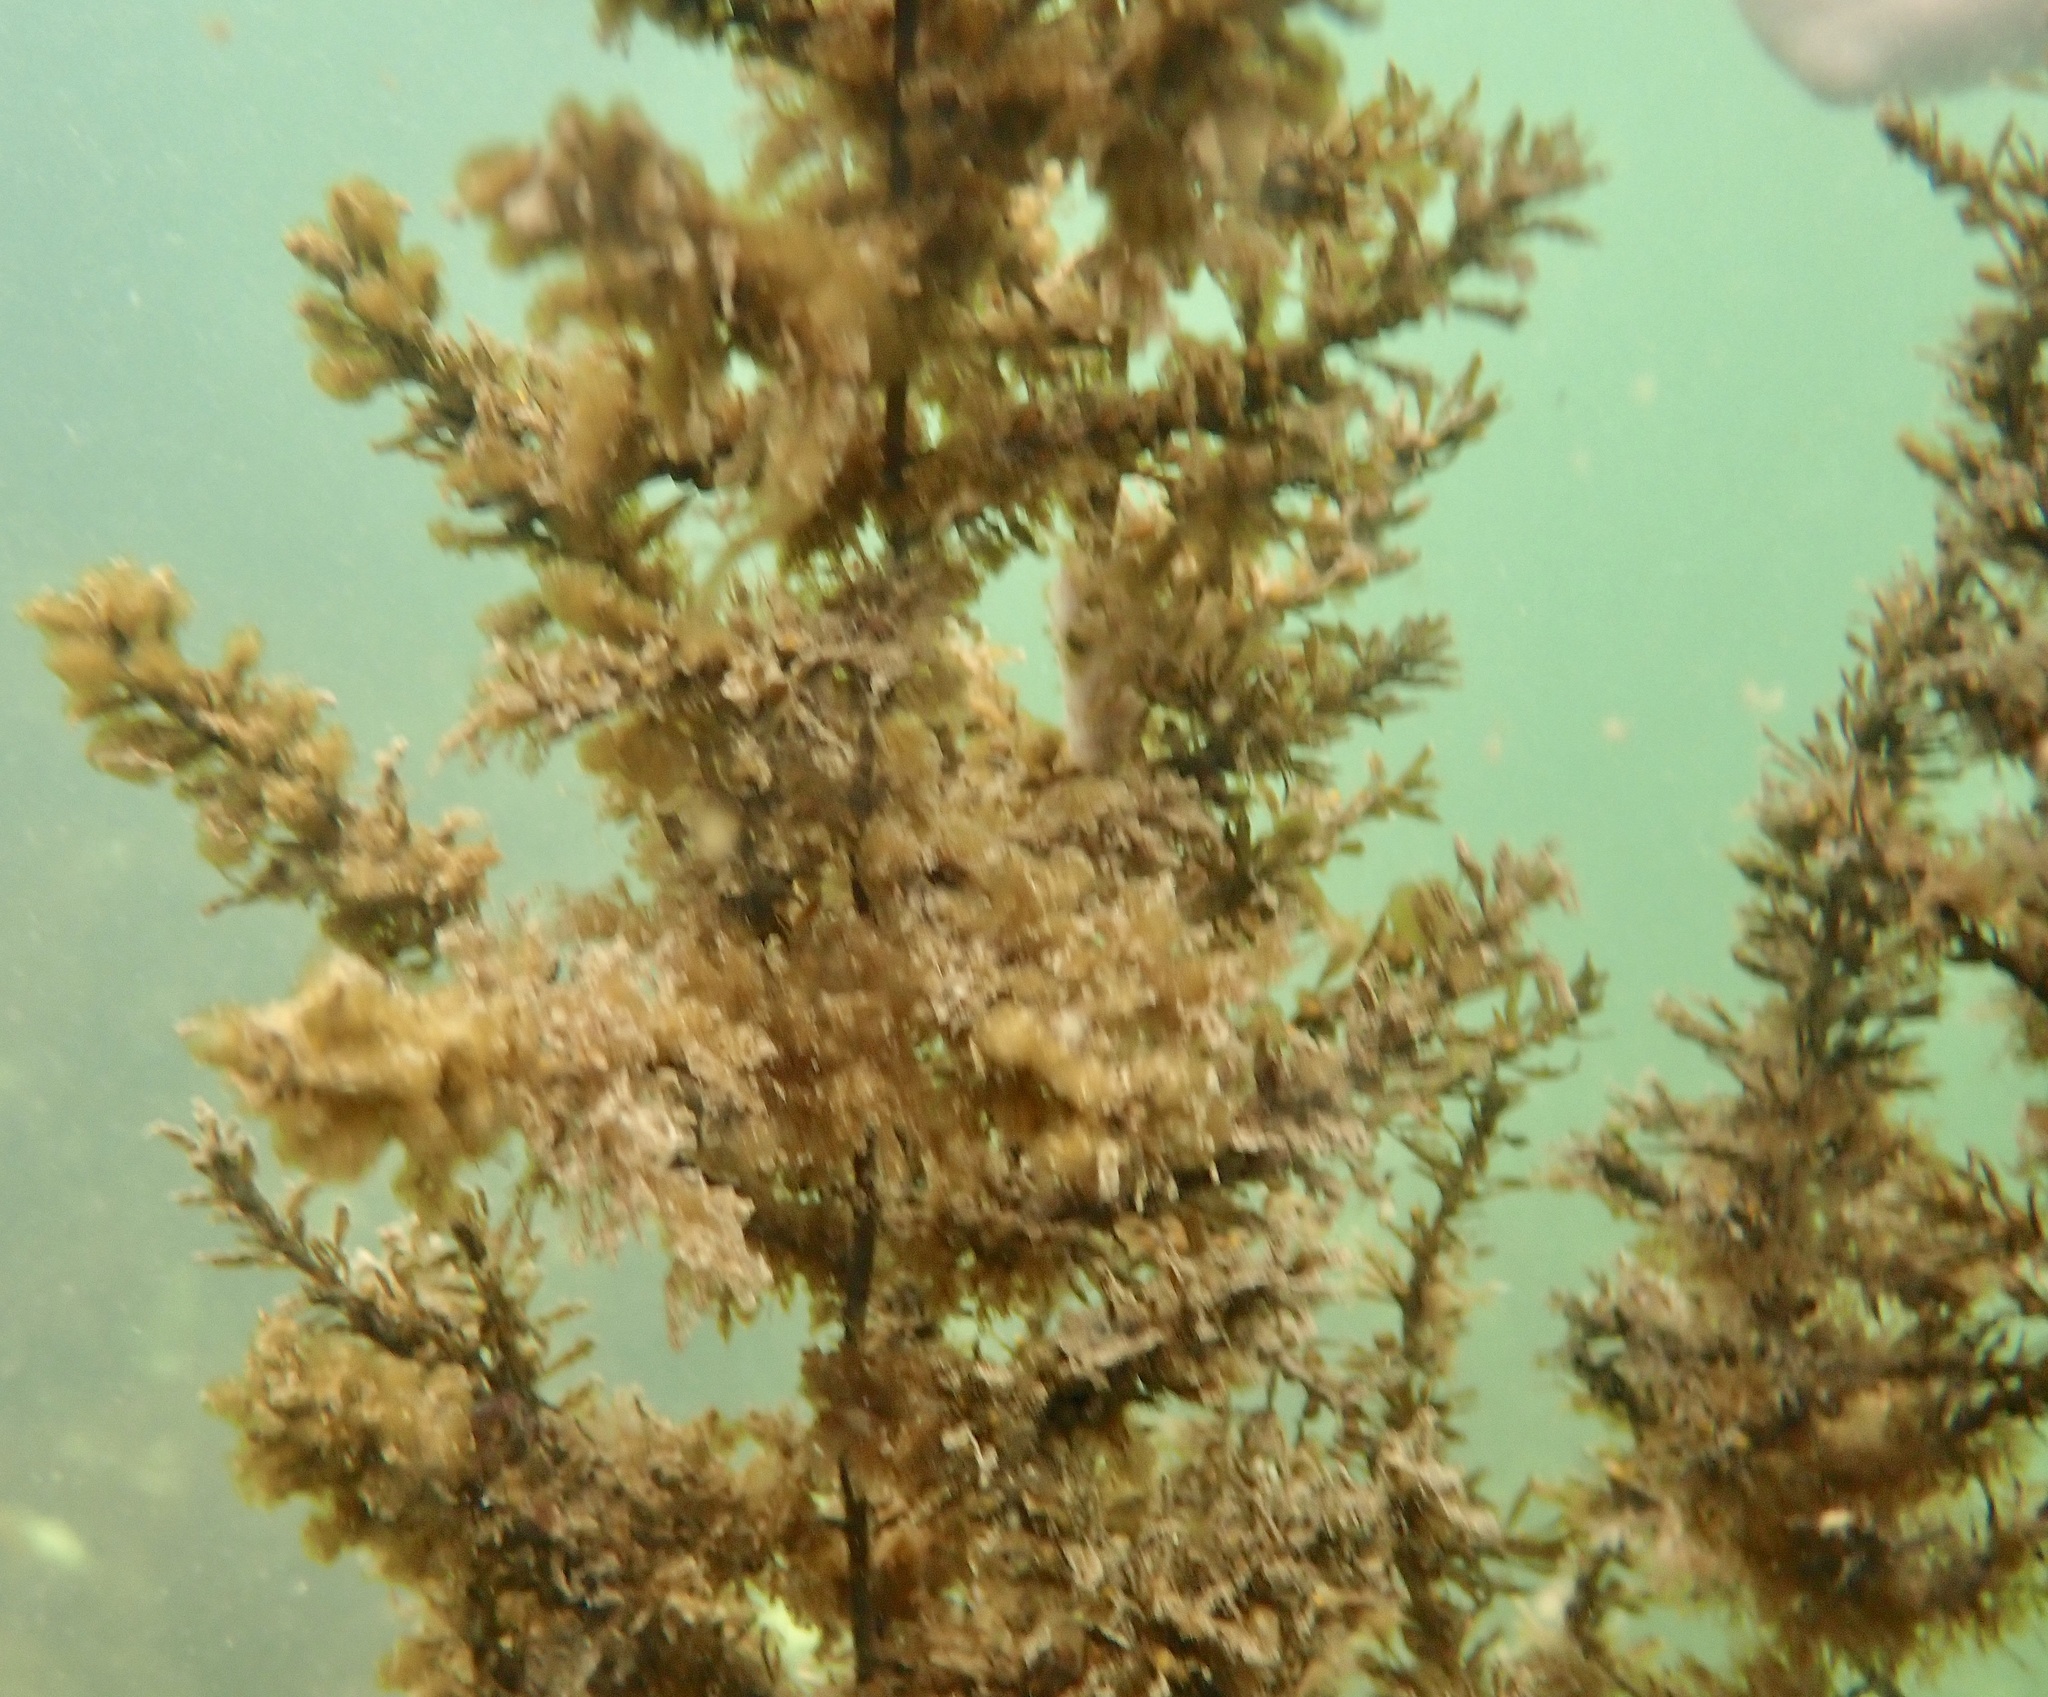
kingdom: Chromista
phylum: Ochrophyta
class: Phaeophyceae
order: Fucales
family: Sargassaceae
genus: Sargassum
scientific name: Sargassum muticum
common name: Japweed
